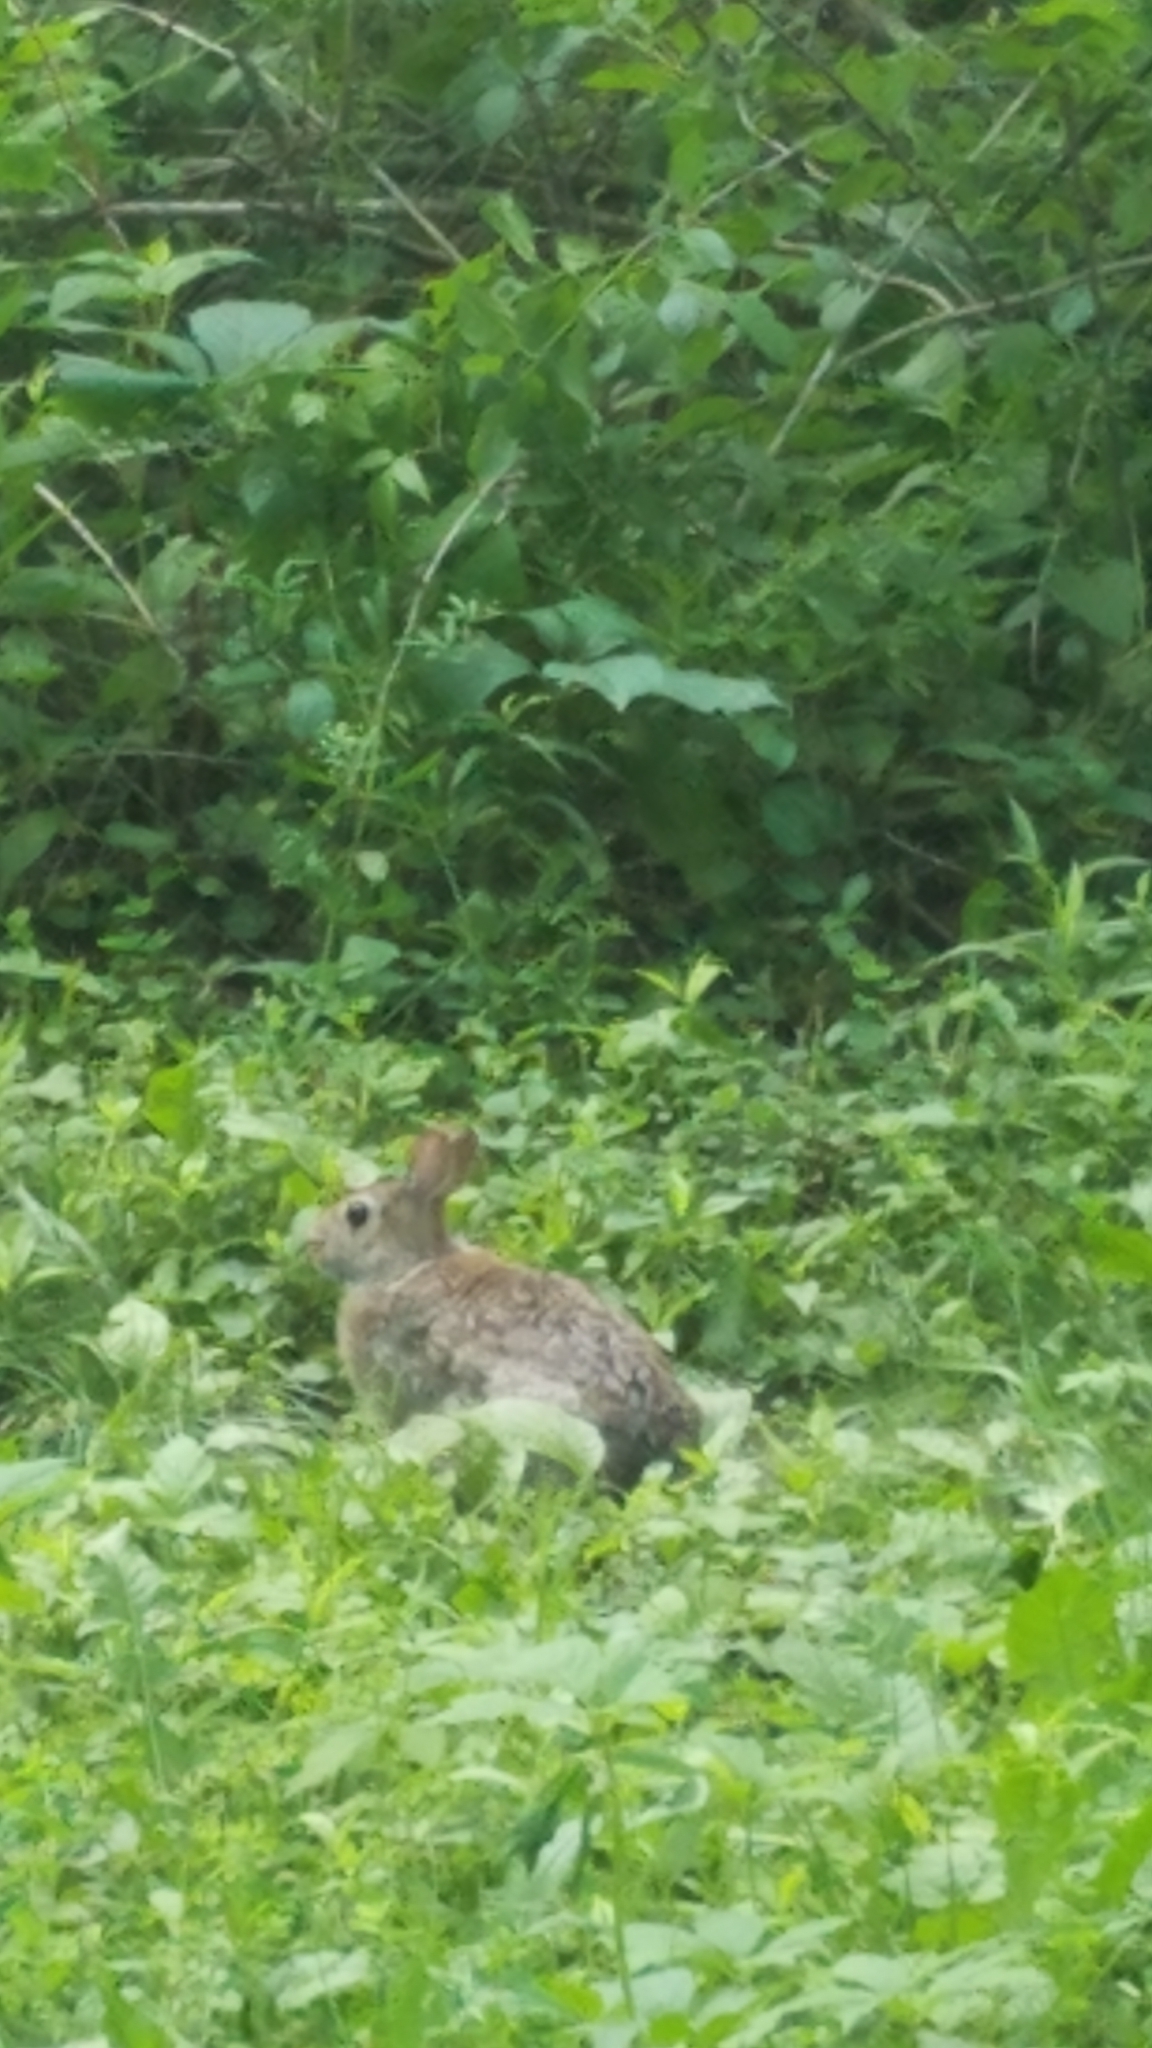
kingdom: Animalia
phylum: Chordata
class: Mammalia
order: Lagomorpha
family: Leporidae
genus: Sylvilagus
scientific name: Sylvilagus floridanus
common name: Eastern cottontail
